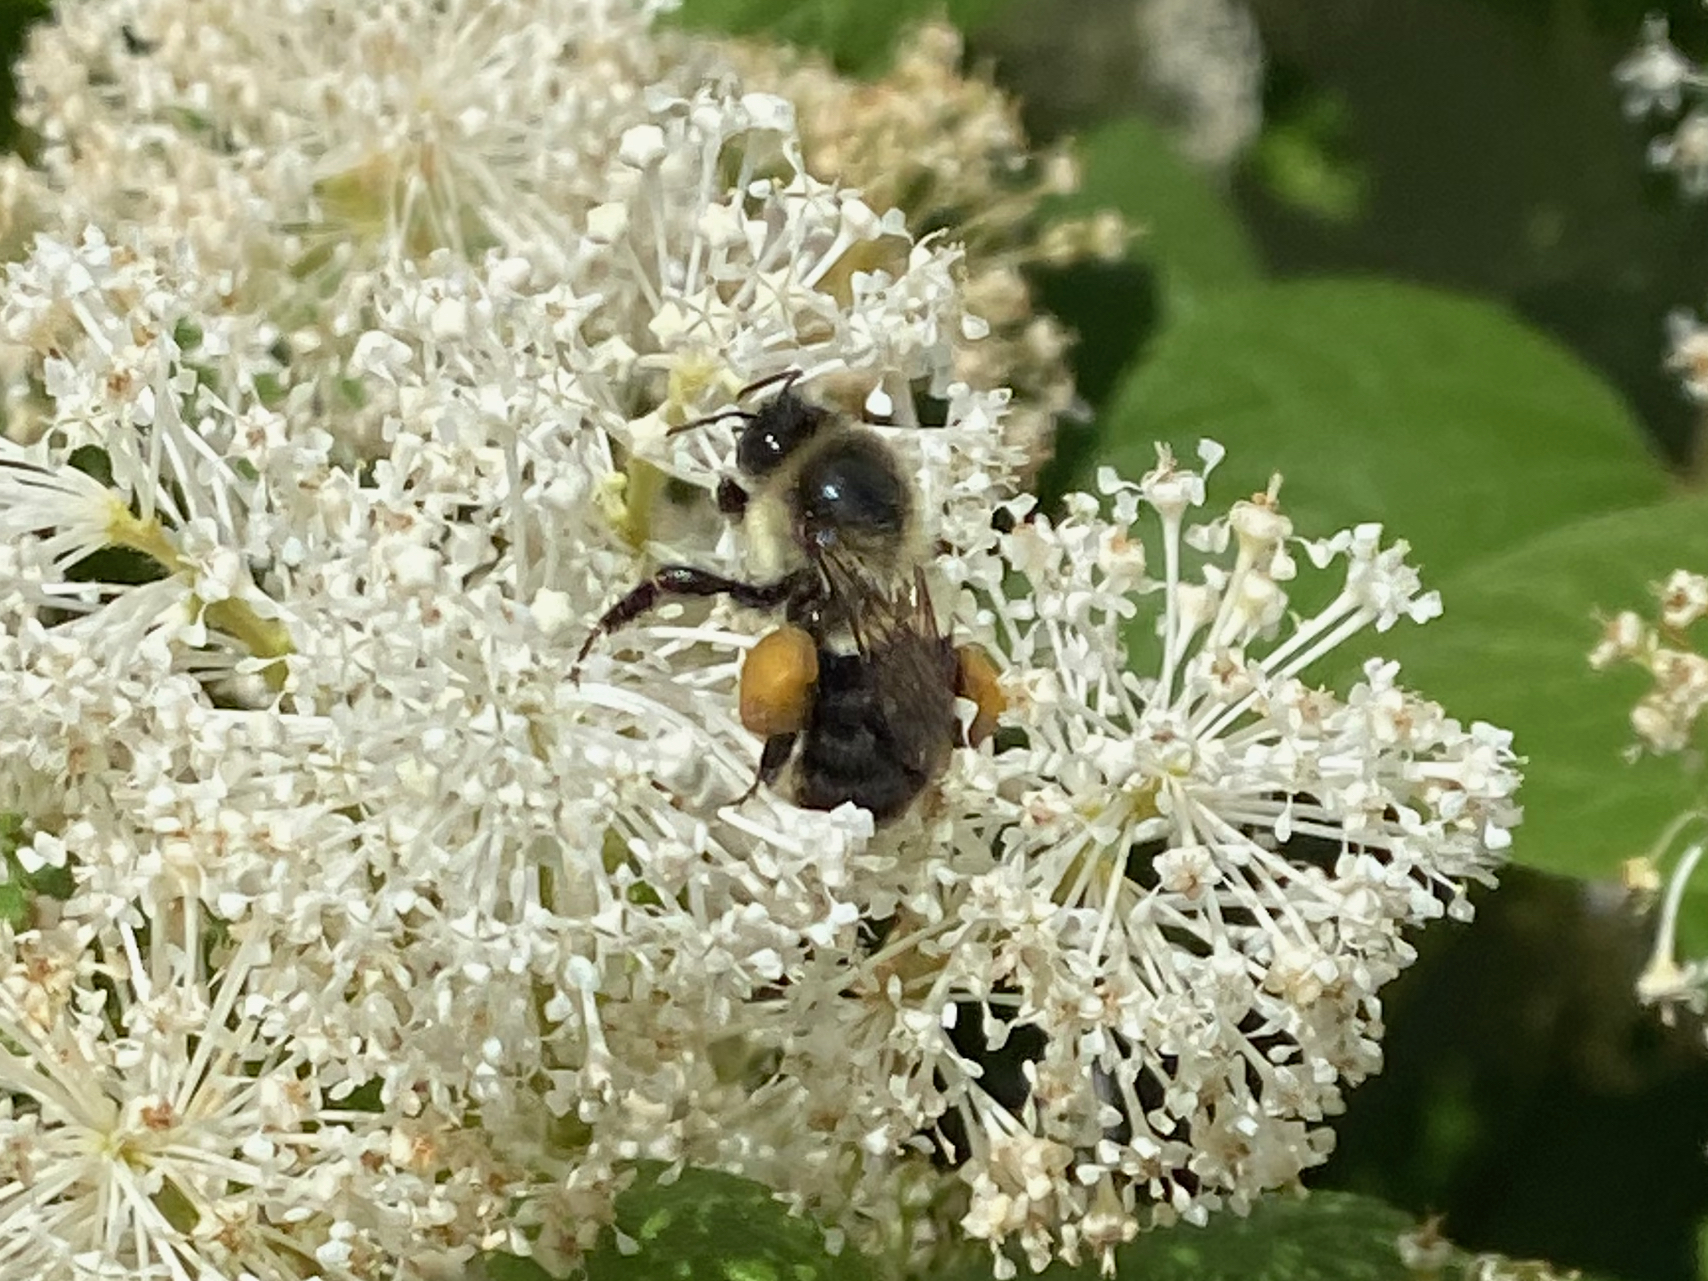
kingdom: Animalia
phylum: Arthropoda
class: Insecta
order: Hymenoptera
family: Apidae
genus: Bombus
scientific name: Bombus impatiens
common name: Common eastern bumble bee
